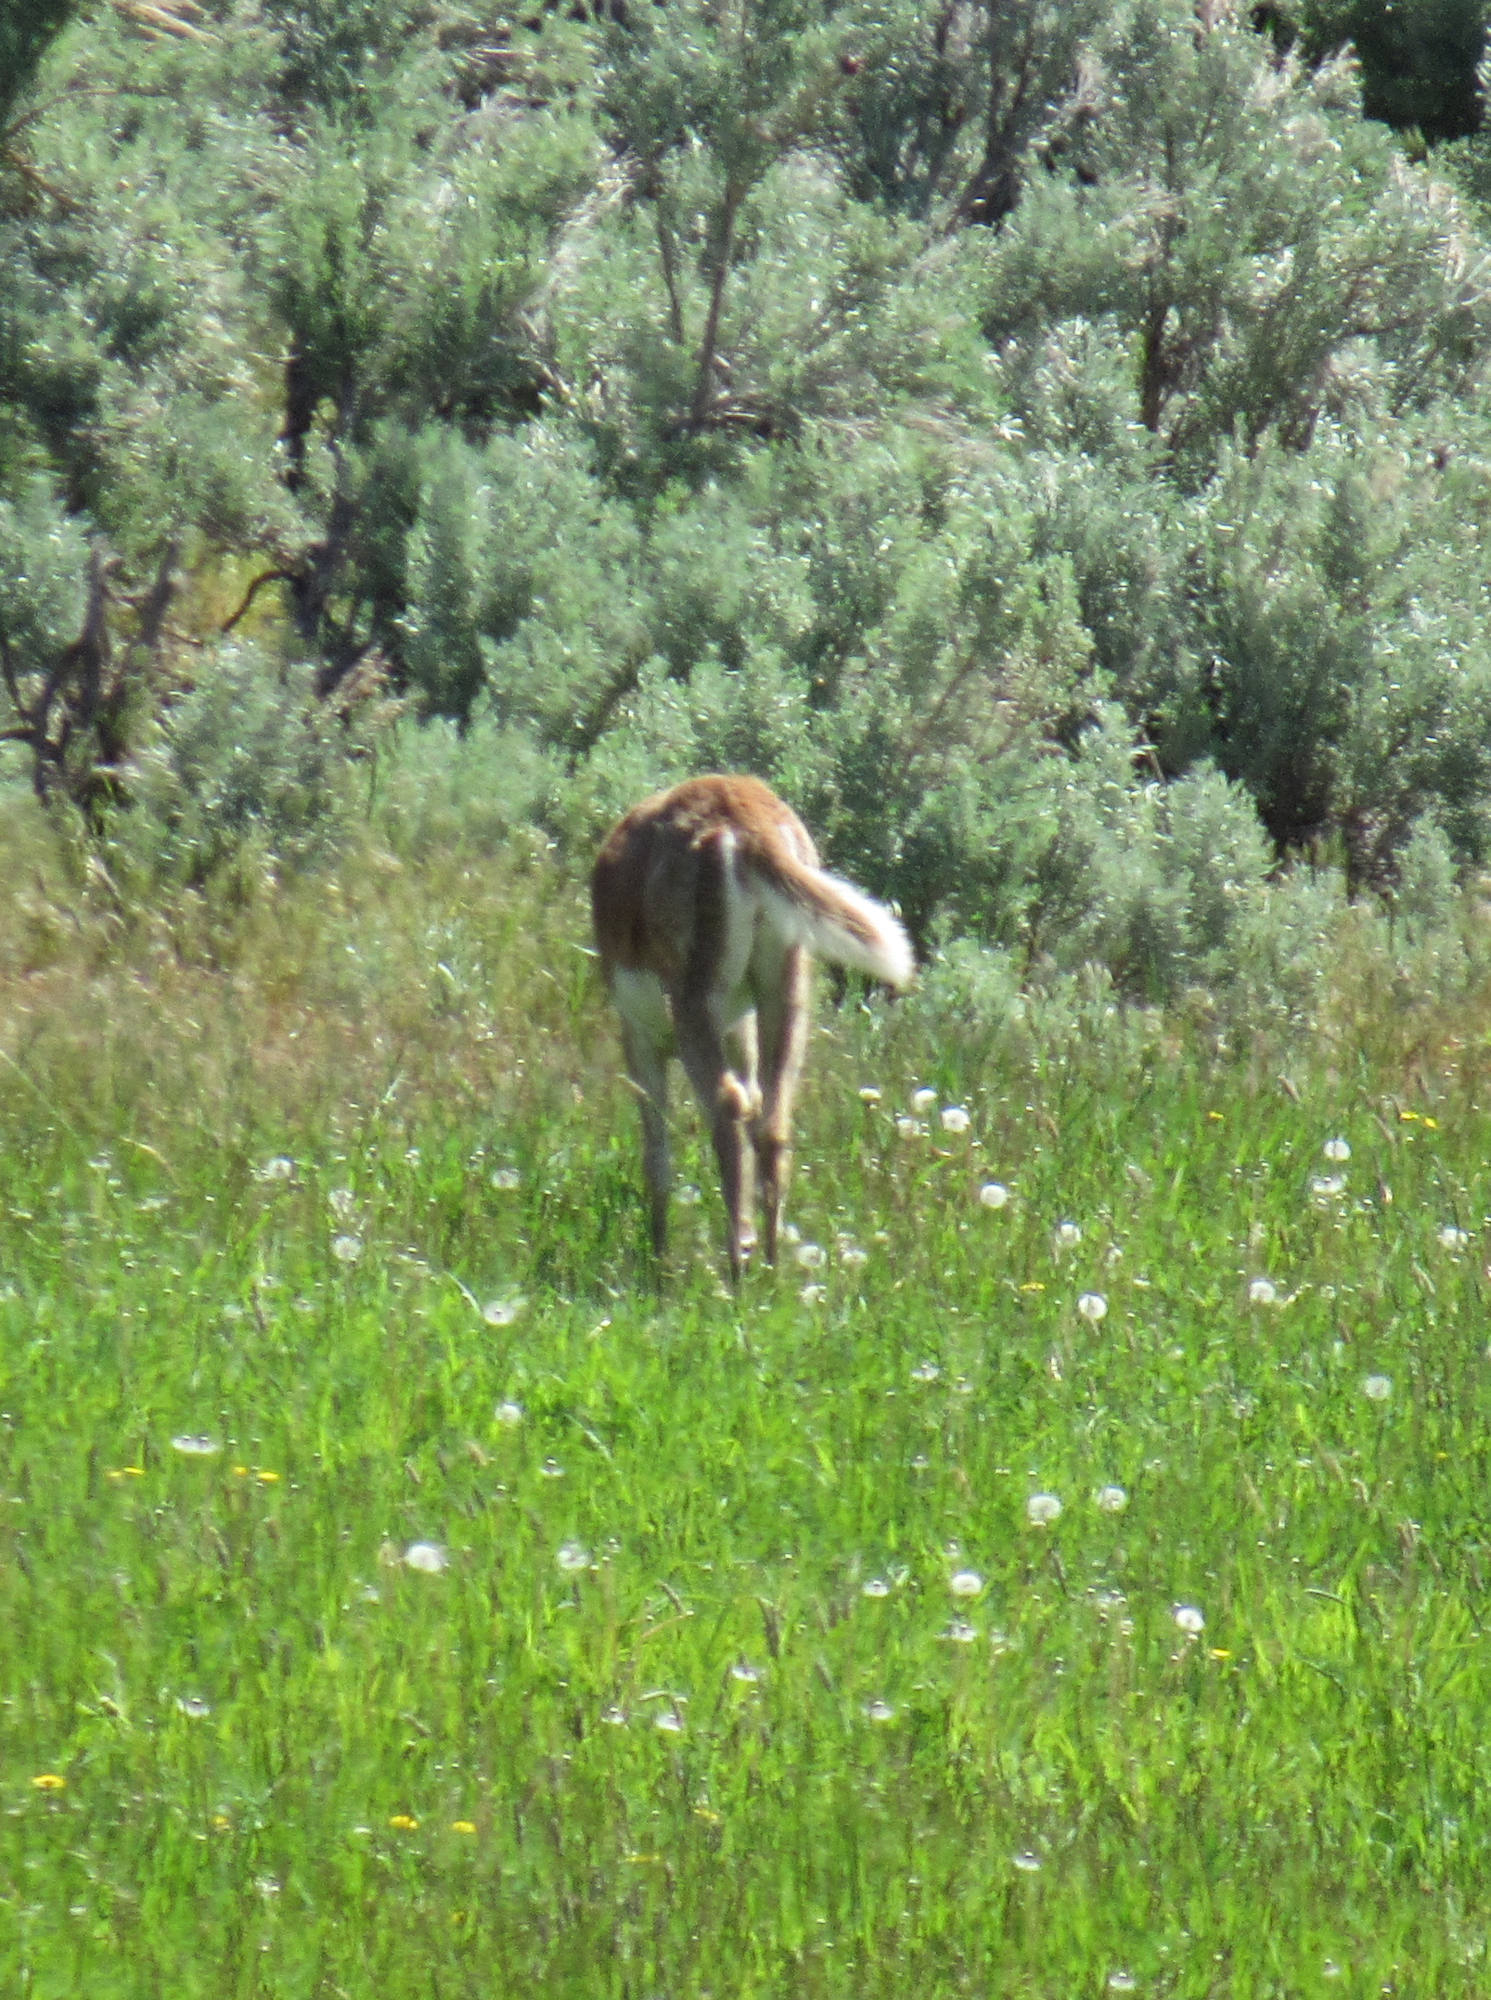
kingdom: Animalia
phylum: Chordata
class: Mammalia
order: Artiodactyla
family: Cervidae
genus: Odocoileus
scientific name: Odocoileus virginianus
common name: White-tailed deer
